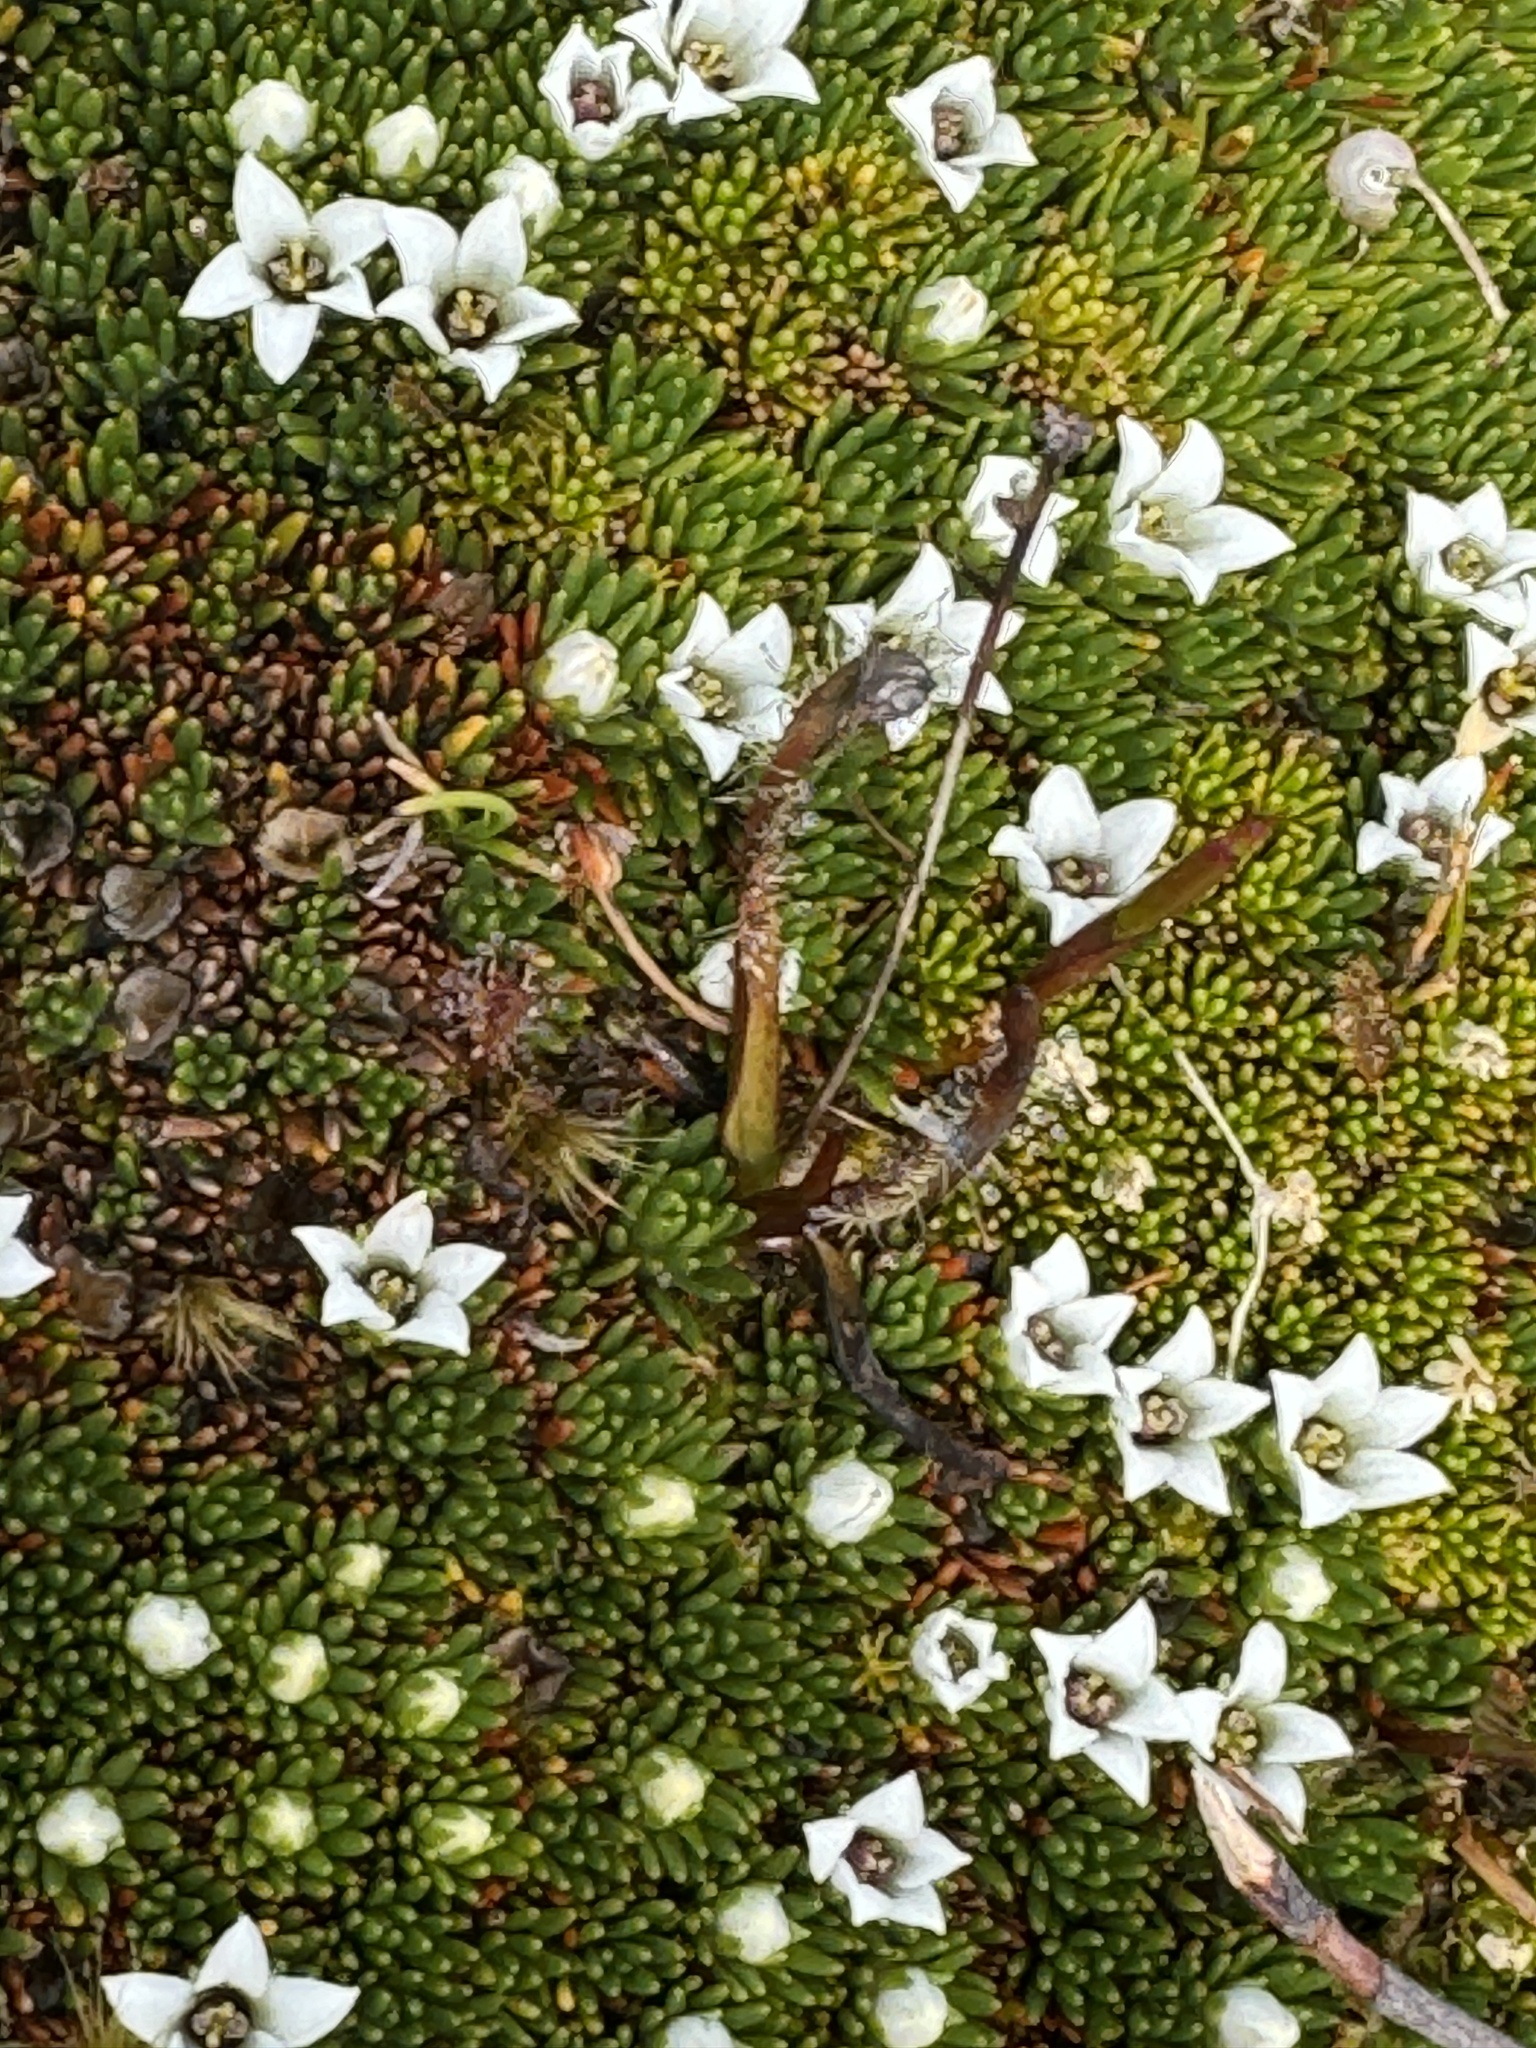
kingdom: Plantae
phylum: Tracheophyta
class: Magnoliopsida
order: Asterales
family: Stylidiaceae
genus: Donatia
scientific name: Donatia novae-zelandiae
